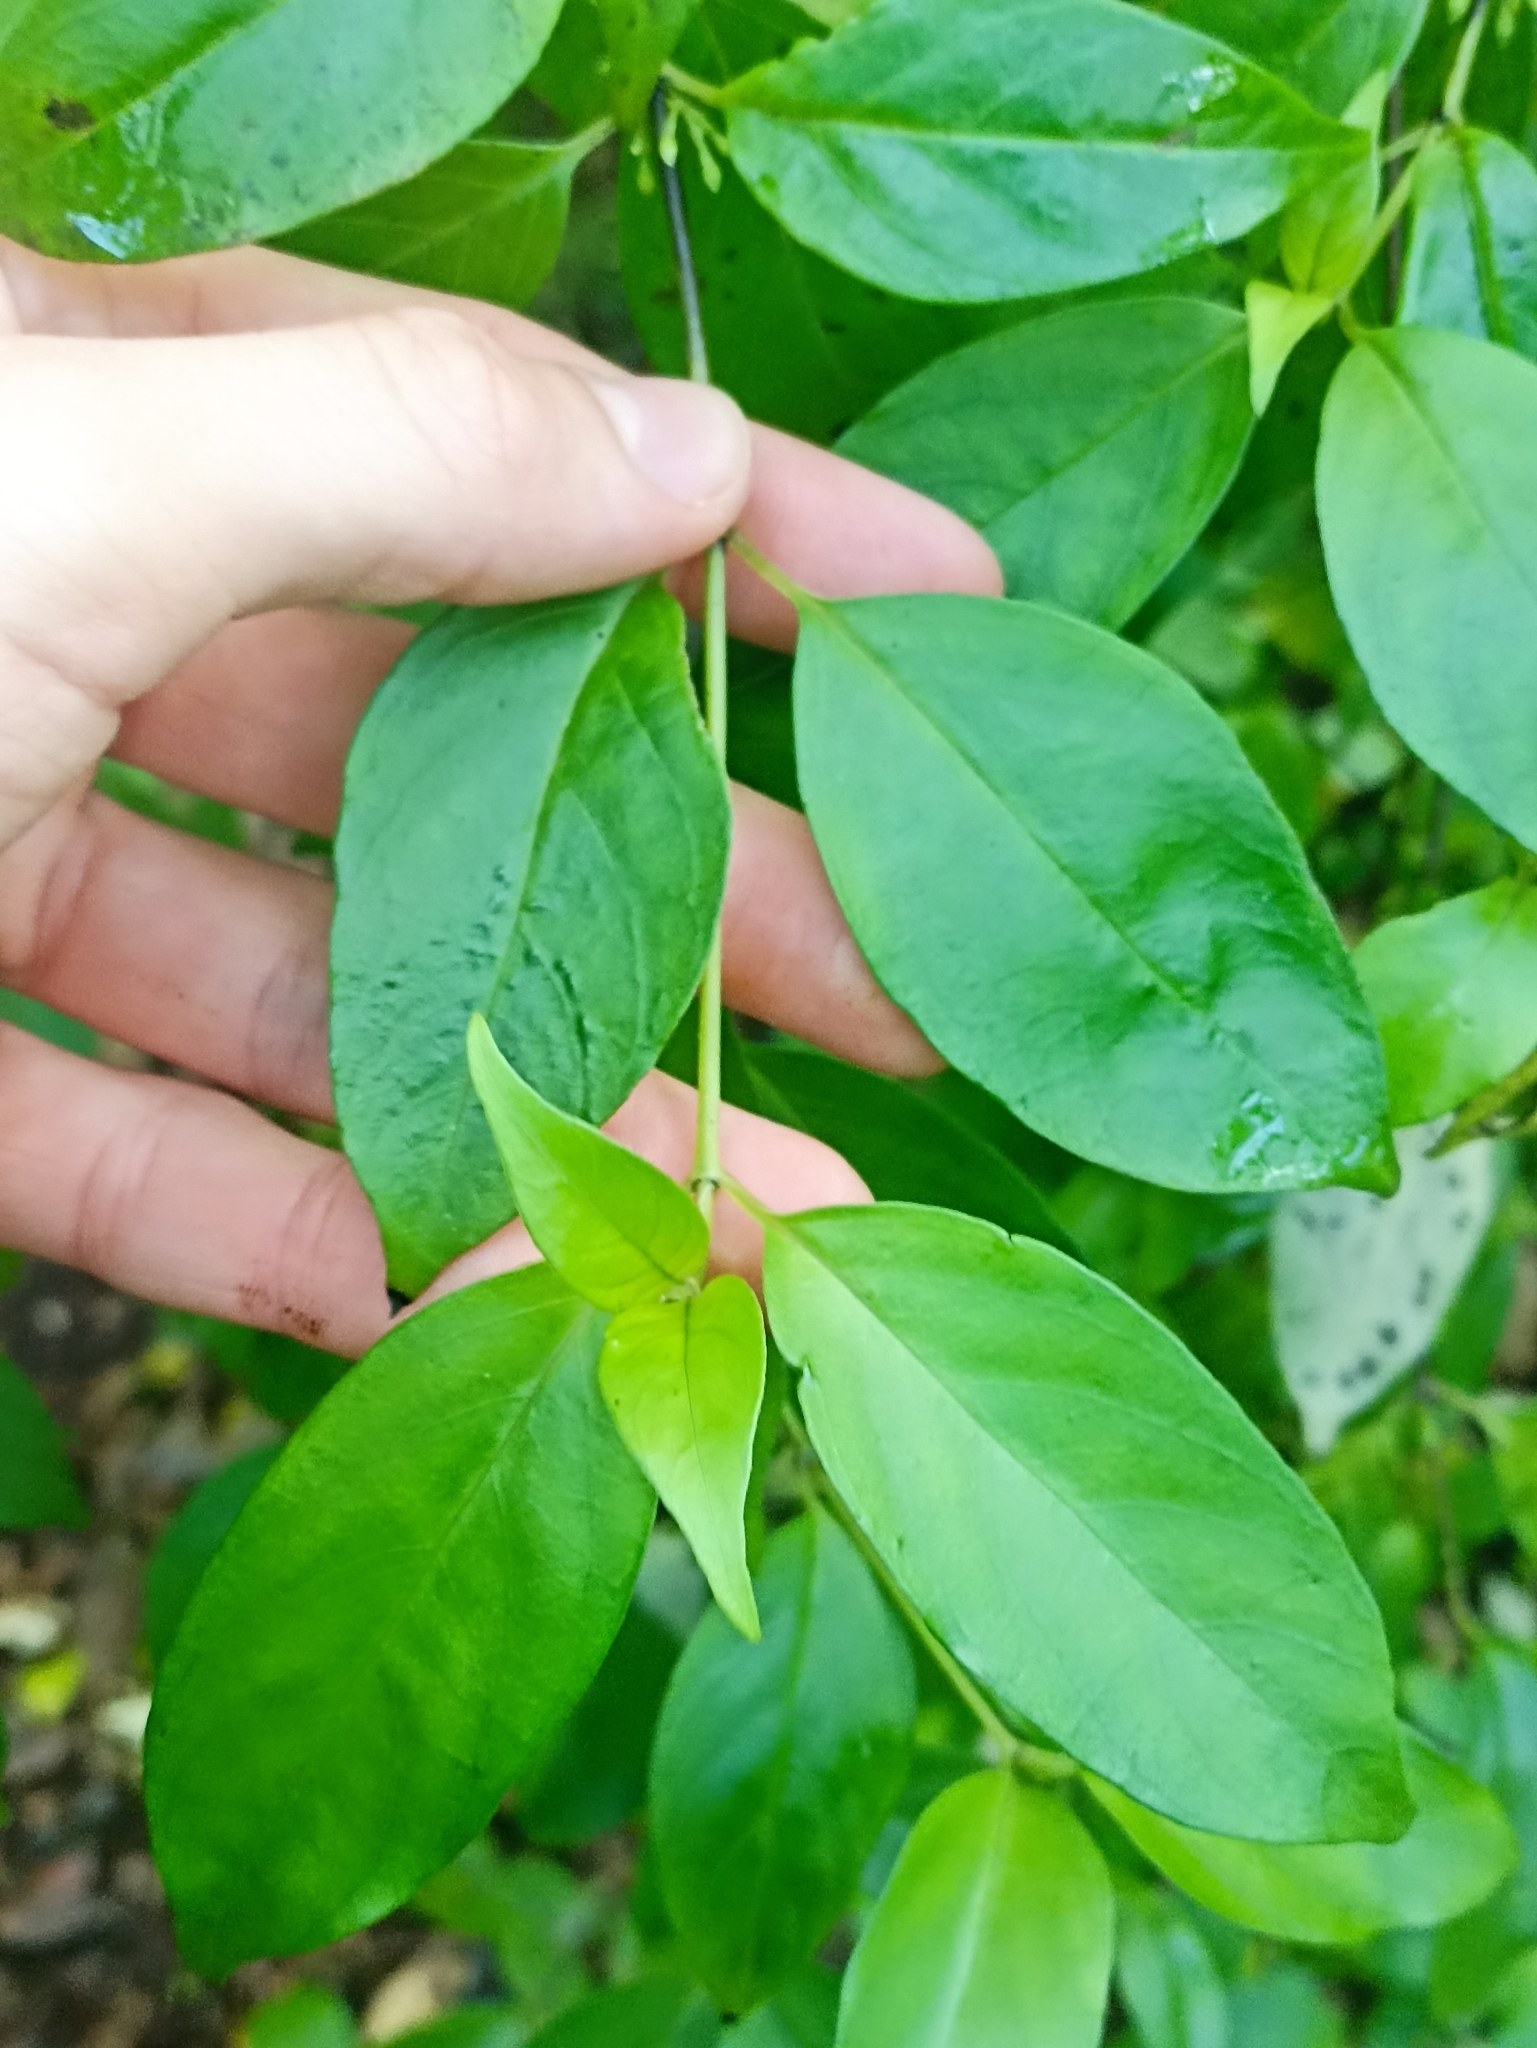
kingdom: Plantae
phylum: Tracheophyta
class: Magnoliopsida
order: Gentianales
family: Loganiaceae
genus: Geniostoma
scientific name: Geniostoma ligustrifolium
